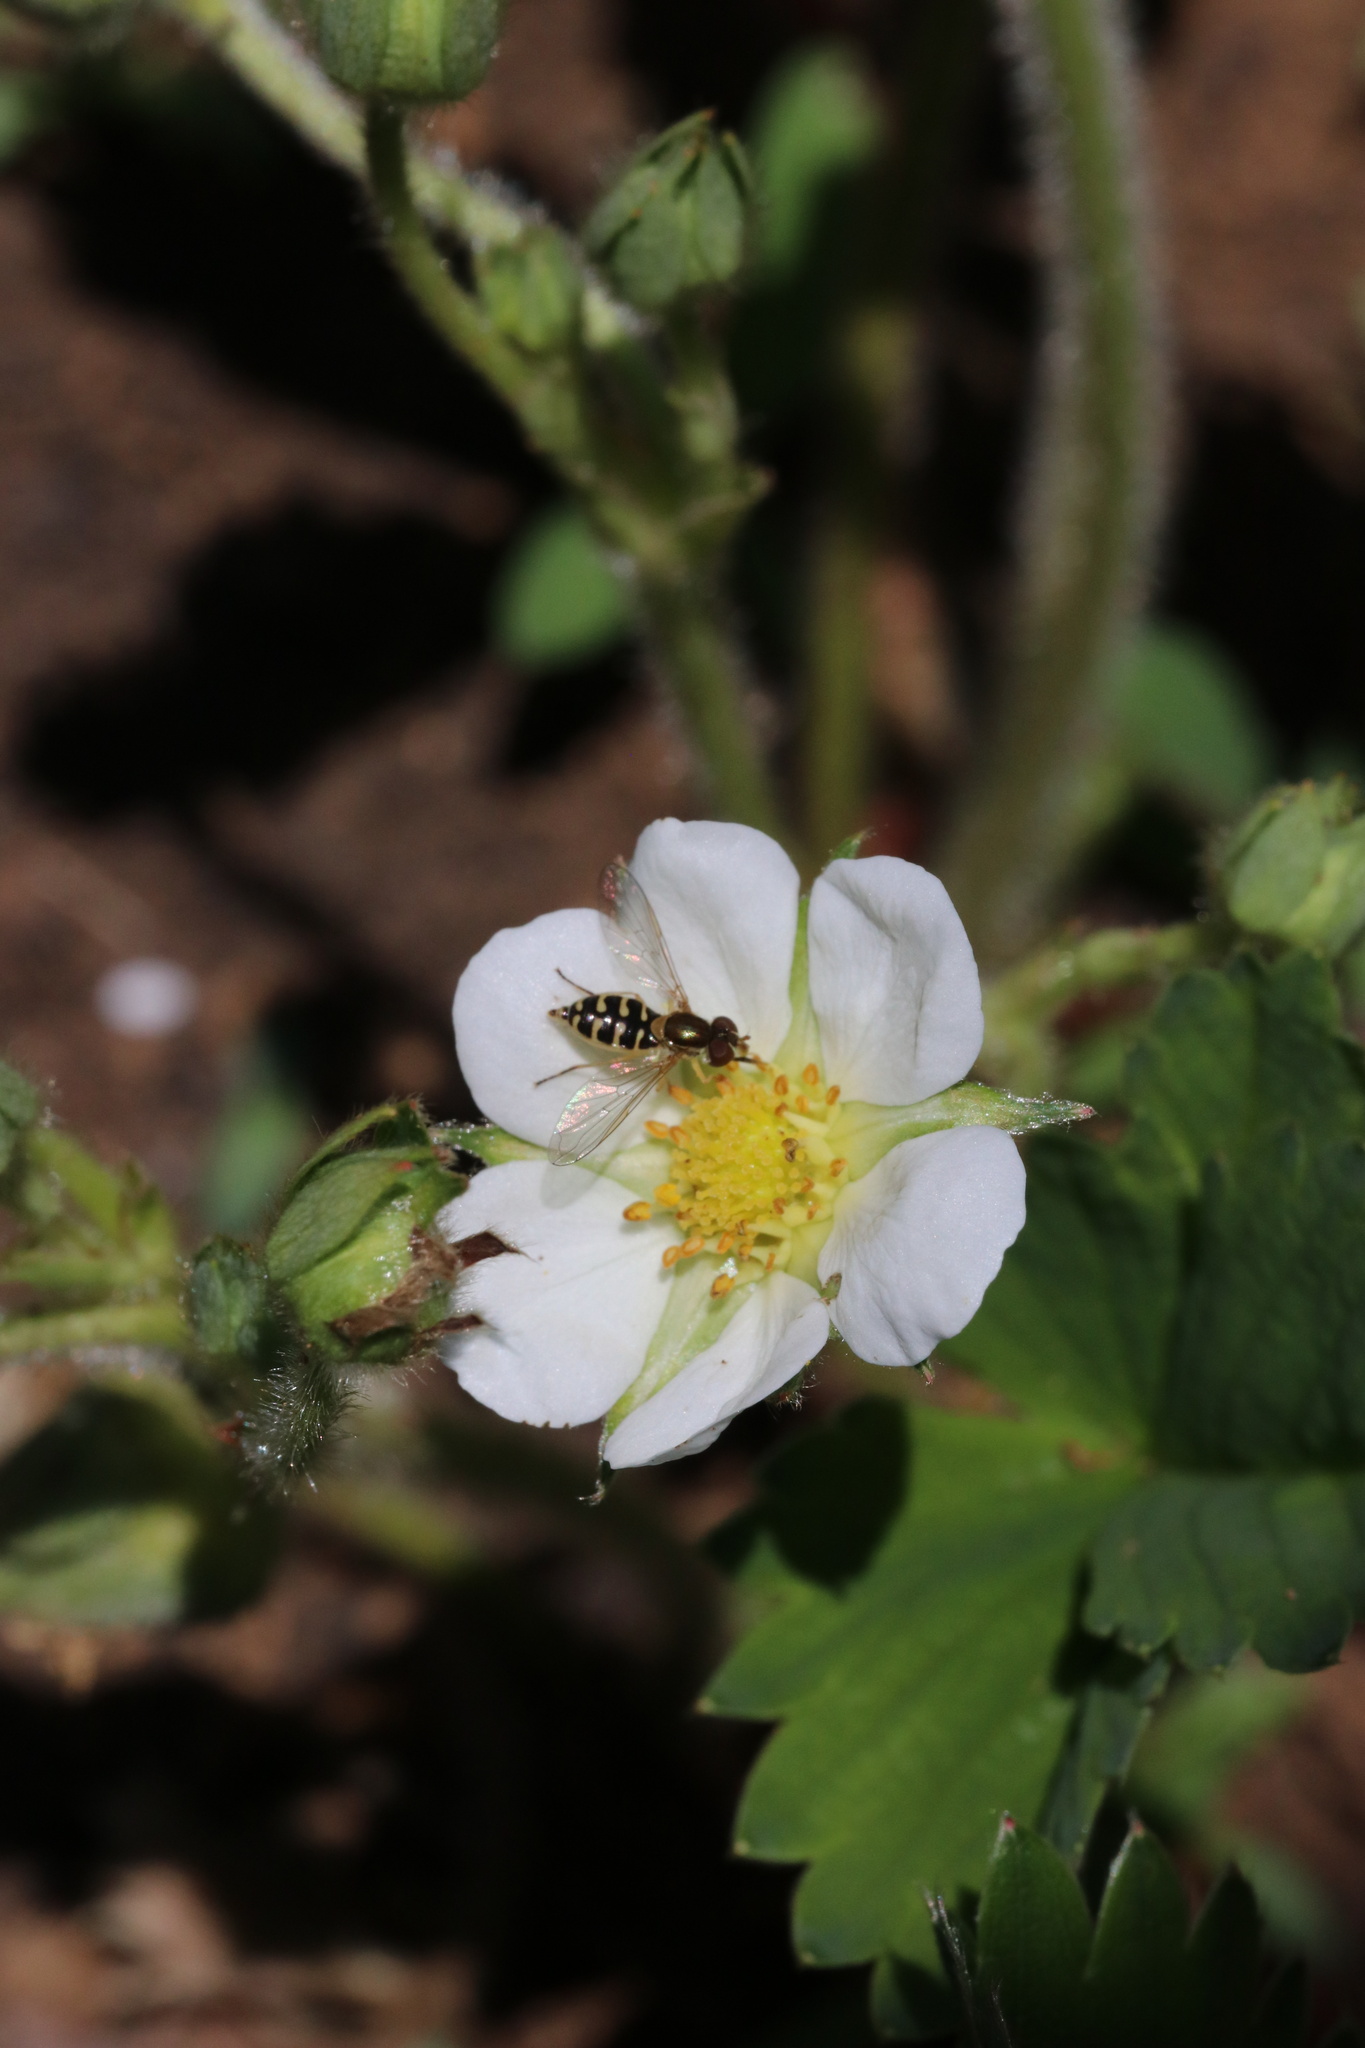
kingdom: Animalia
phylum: Arthropoda
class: Insecta
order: Diptera
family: Syrphidae
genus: Toxomerus
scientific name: Toxomerus vertebratus
